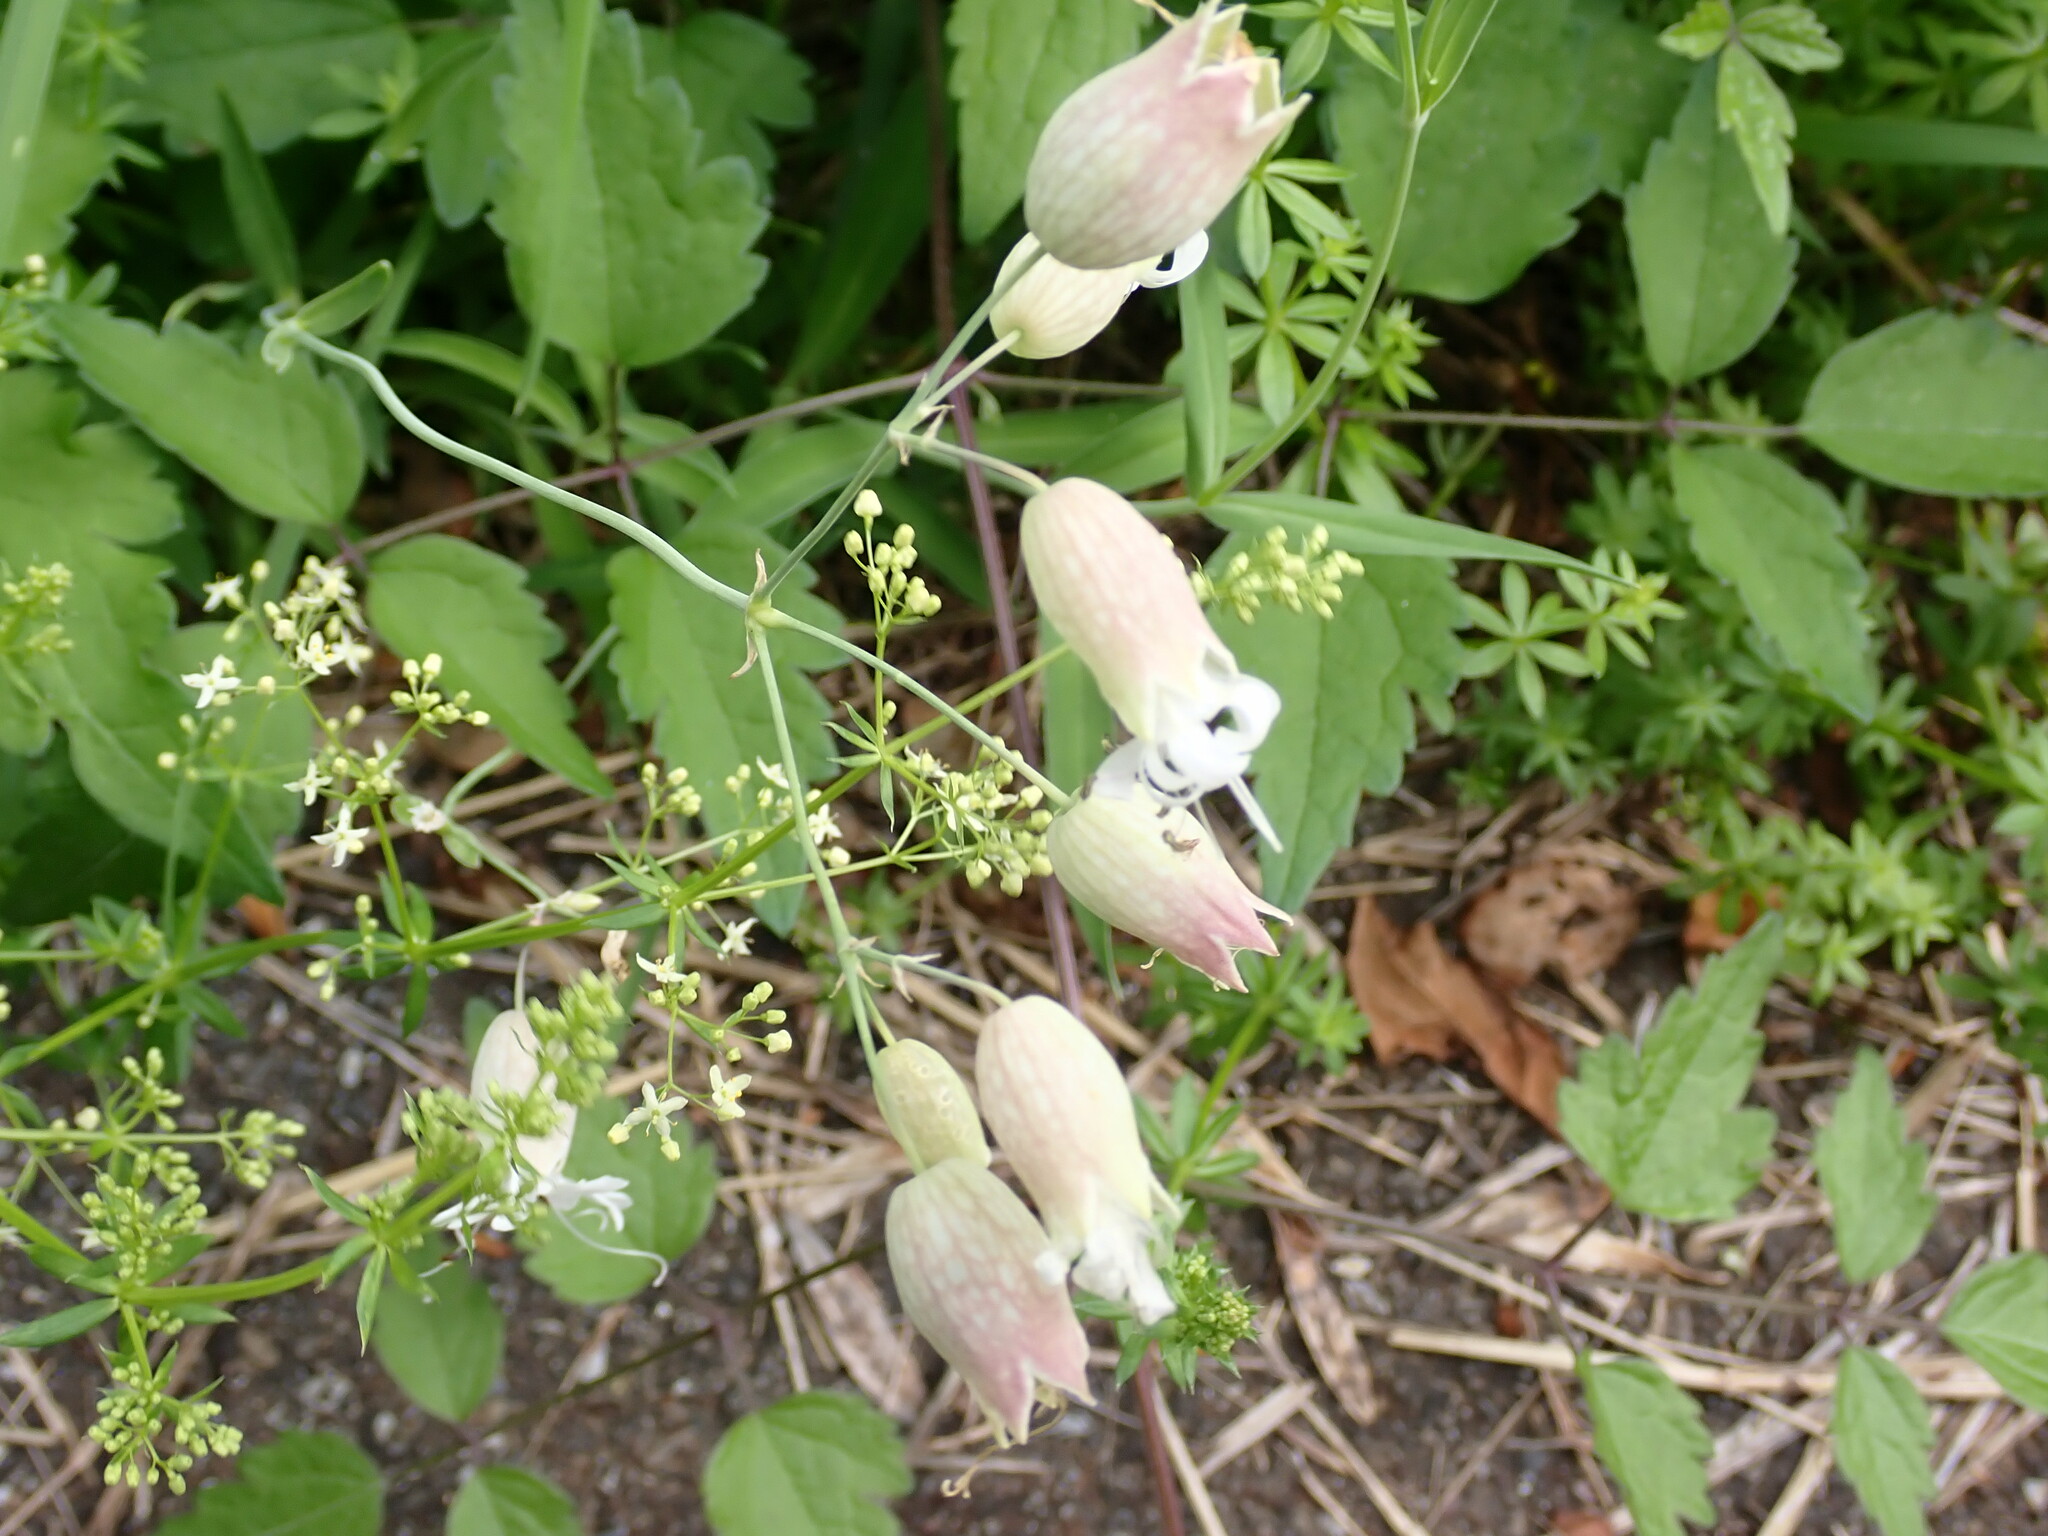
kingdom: Plantae
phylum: Tracheophyta
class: Magnoliopsida
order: Caryophyllales
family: Caryophyllaceae
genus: Silene
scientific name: Silene vulgaris
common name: Bladder campion
